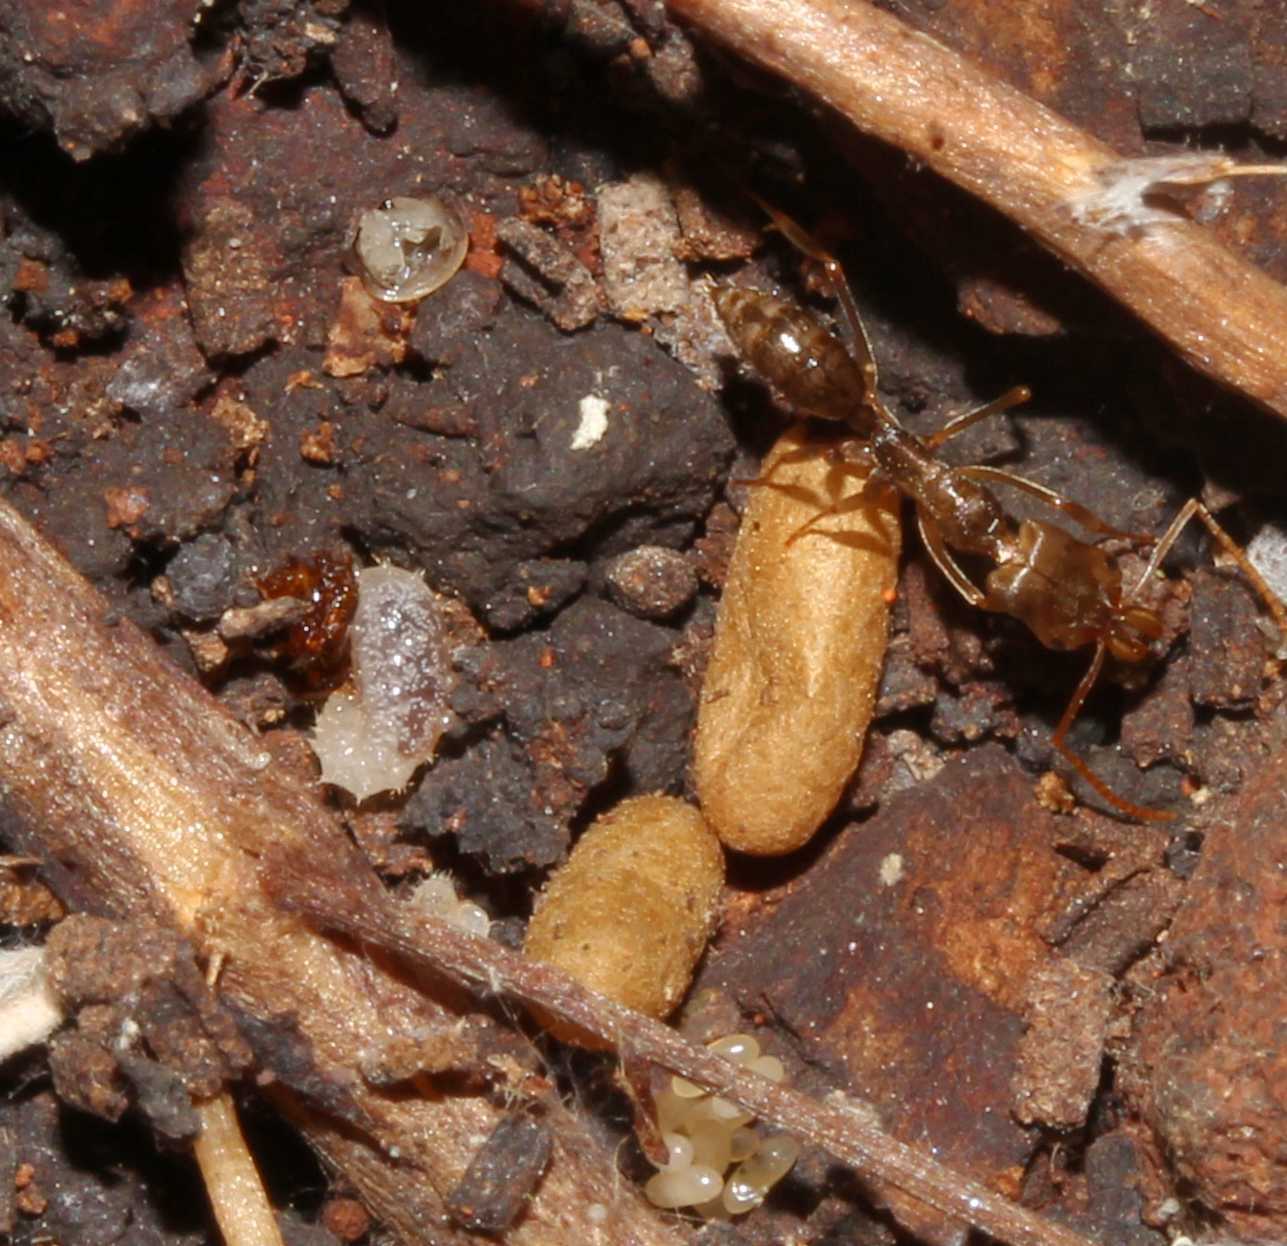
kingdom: Animalia
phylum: Arthropoda
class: Insecta
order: Hymenoptera
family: Formicidae
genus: Odontomachus
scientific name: Odontomachus
